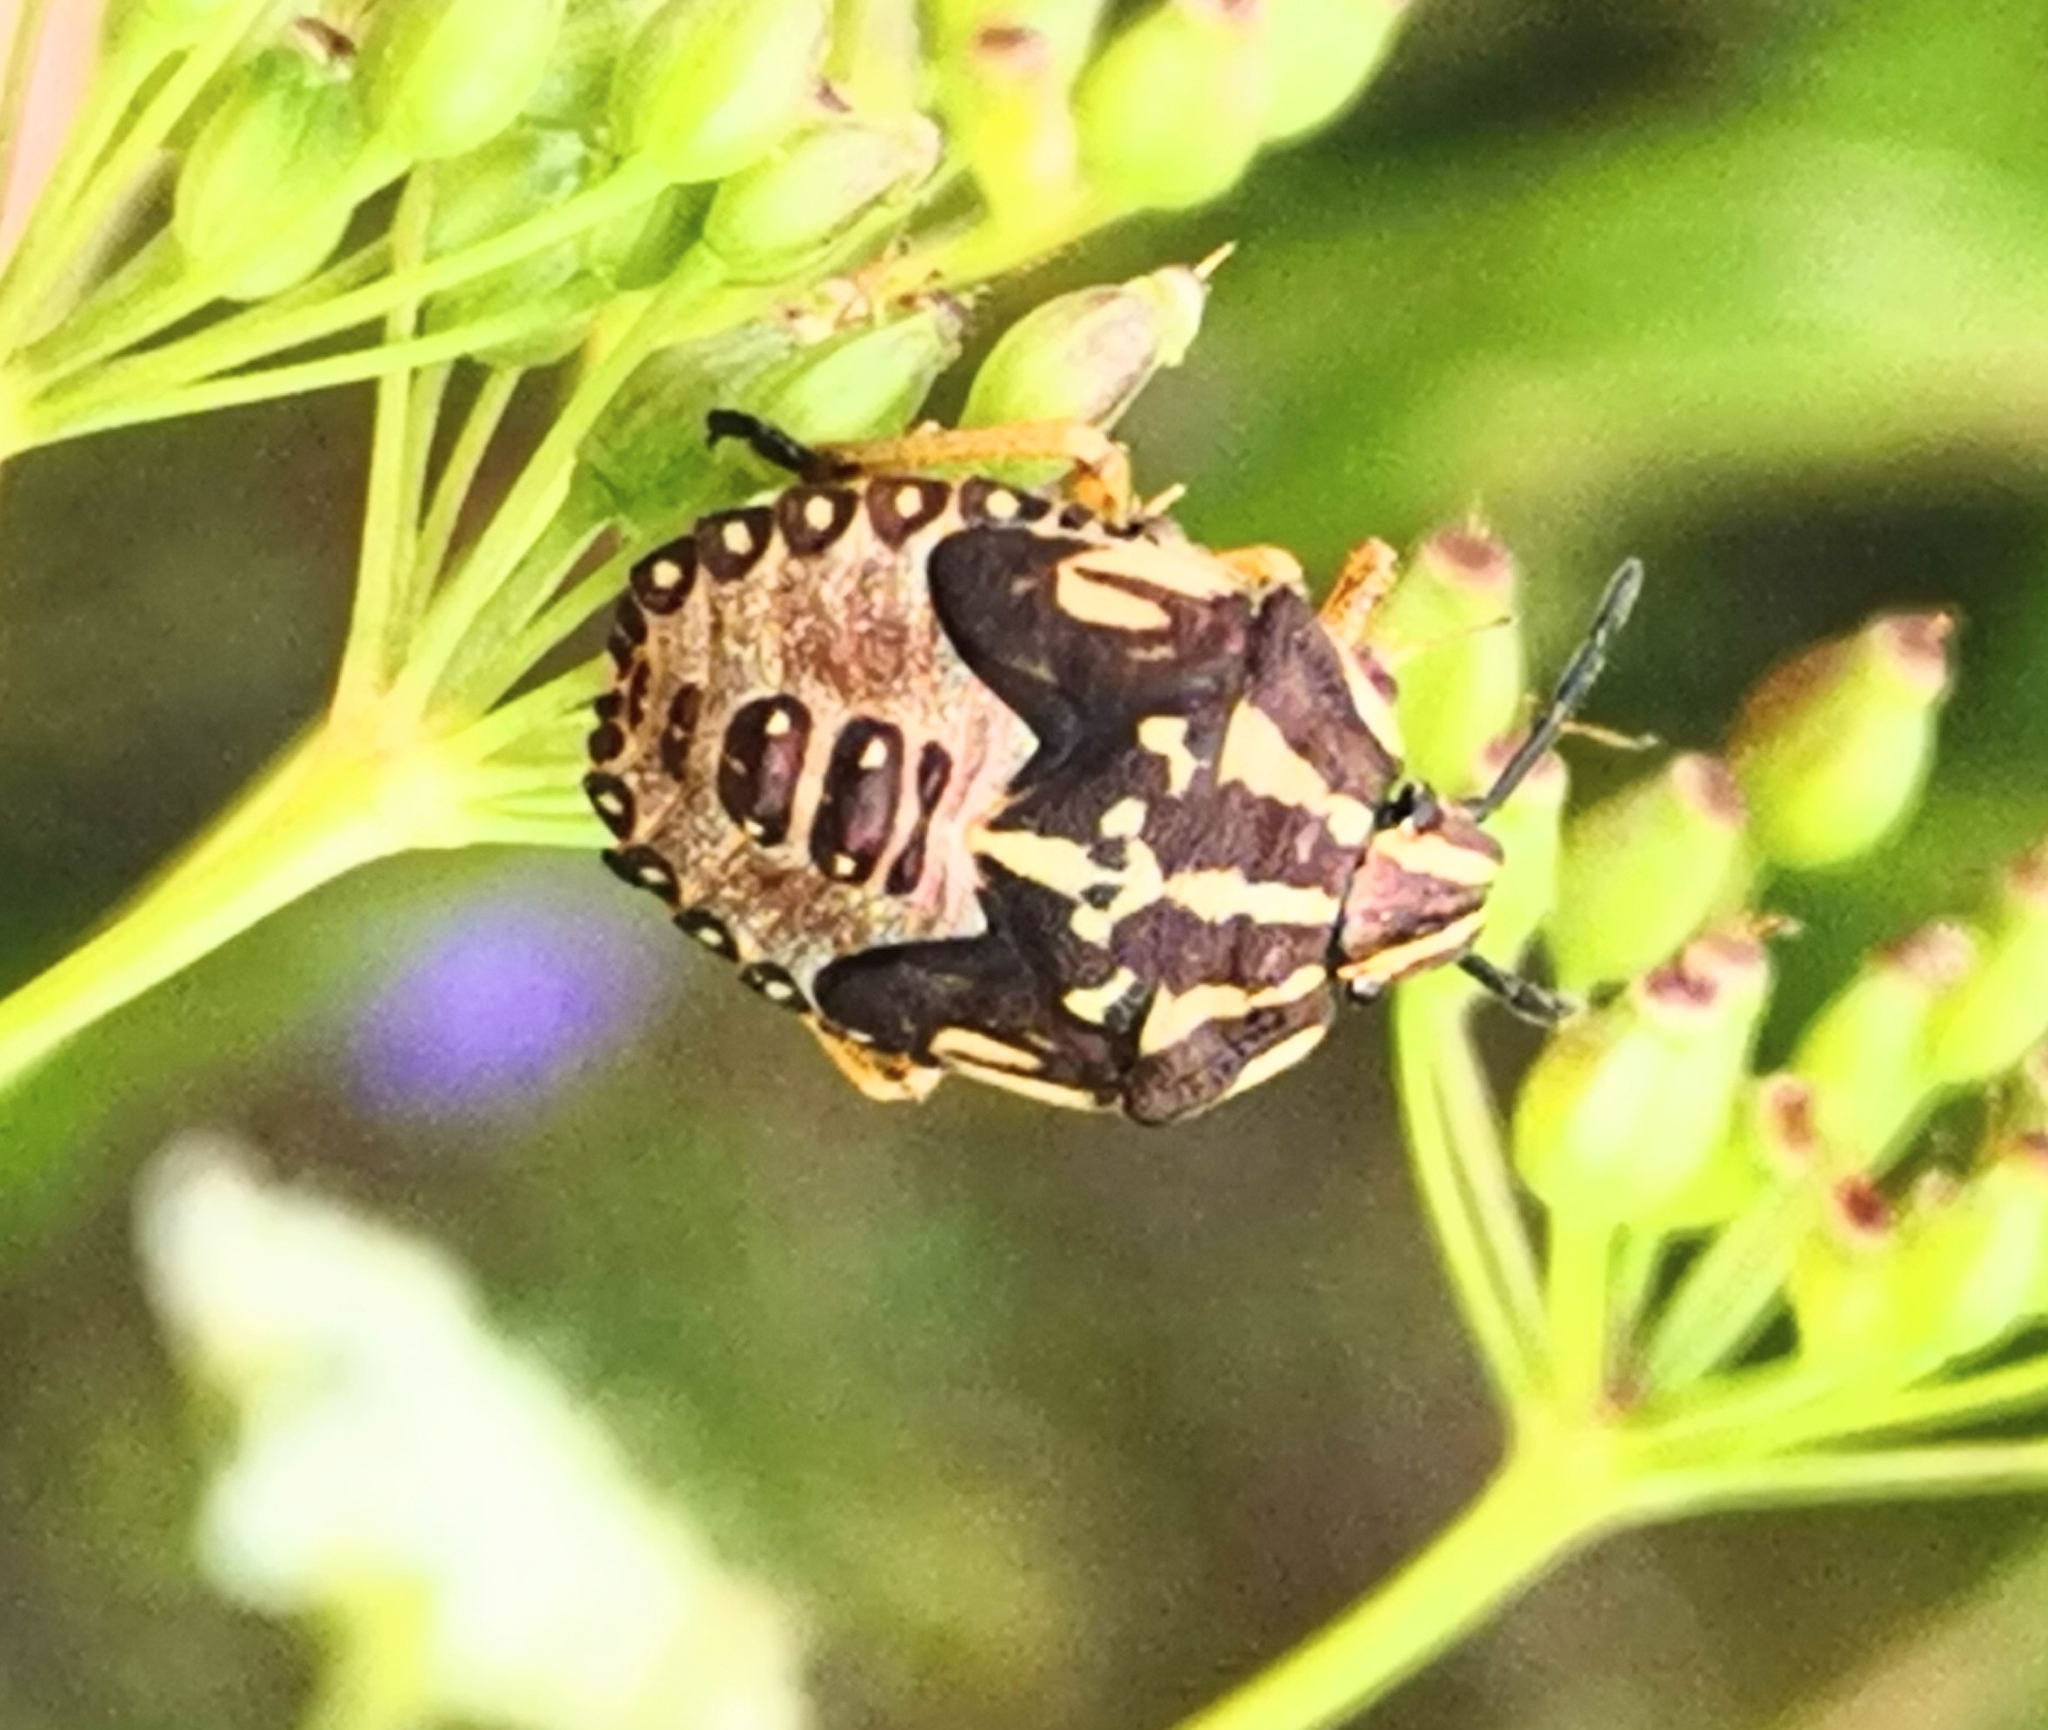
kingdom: Animalia
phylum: Arthropoda
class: Insecta
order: Hemiptera
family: Pentatomidae
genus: Carpocoris
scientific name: Carpocoris purpureipennis
